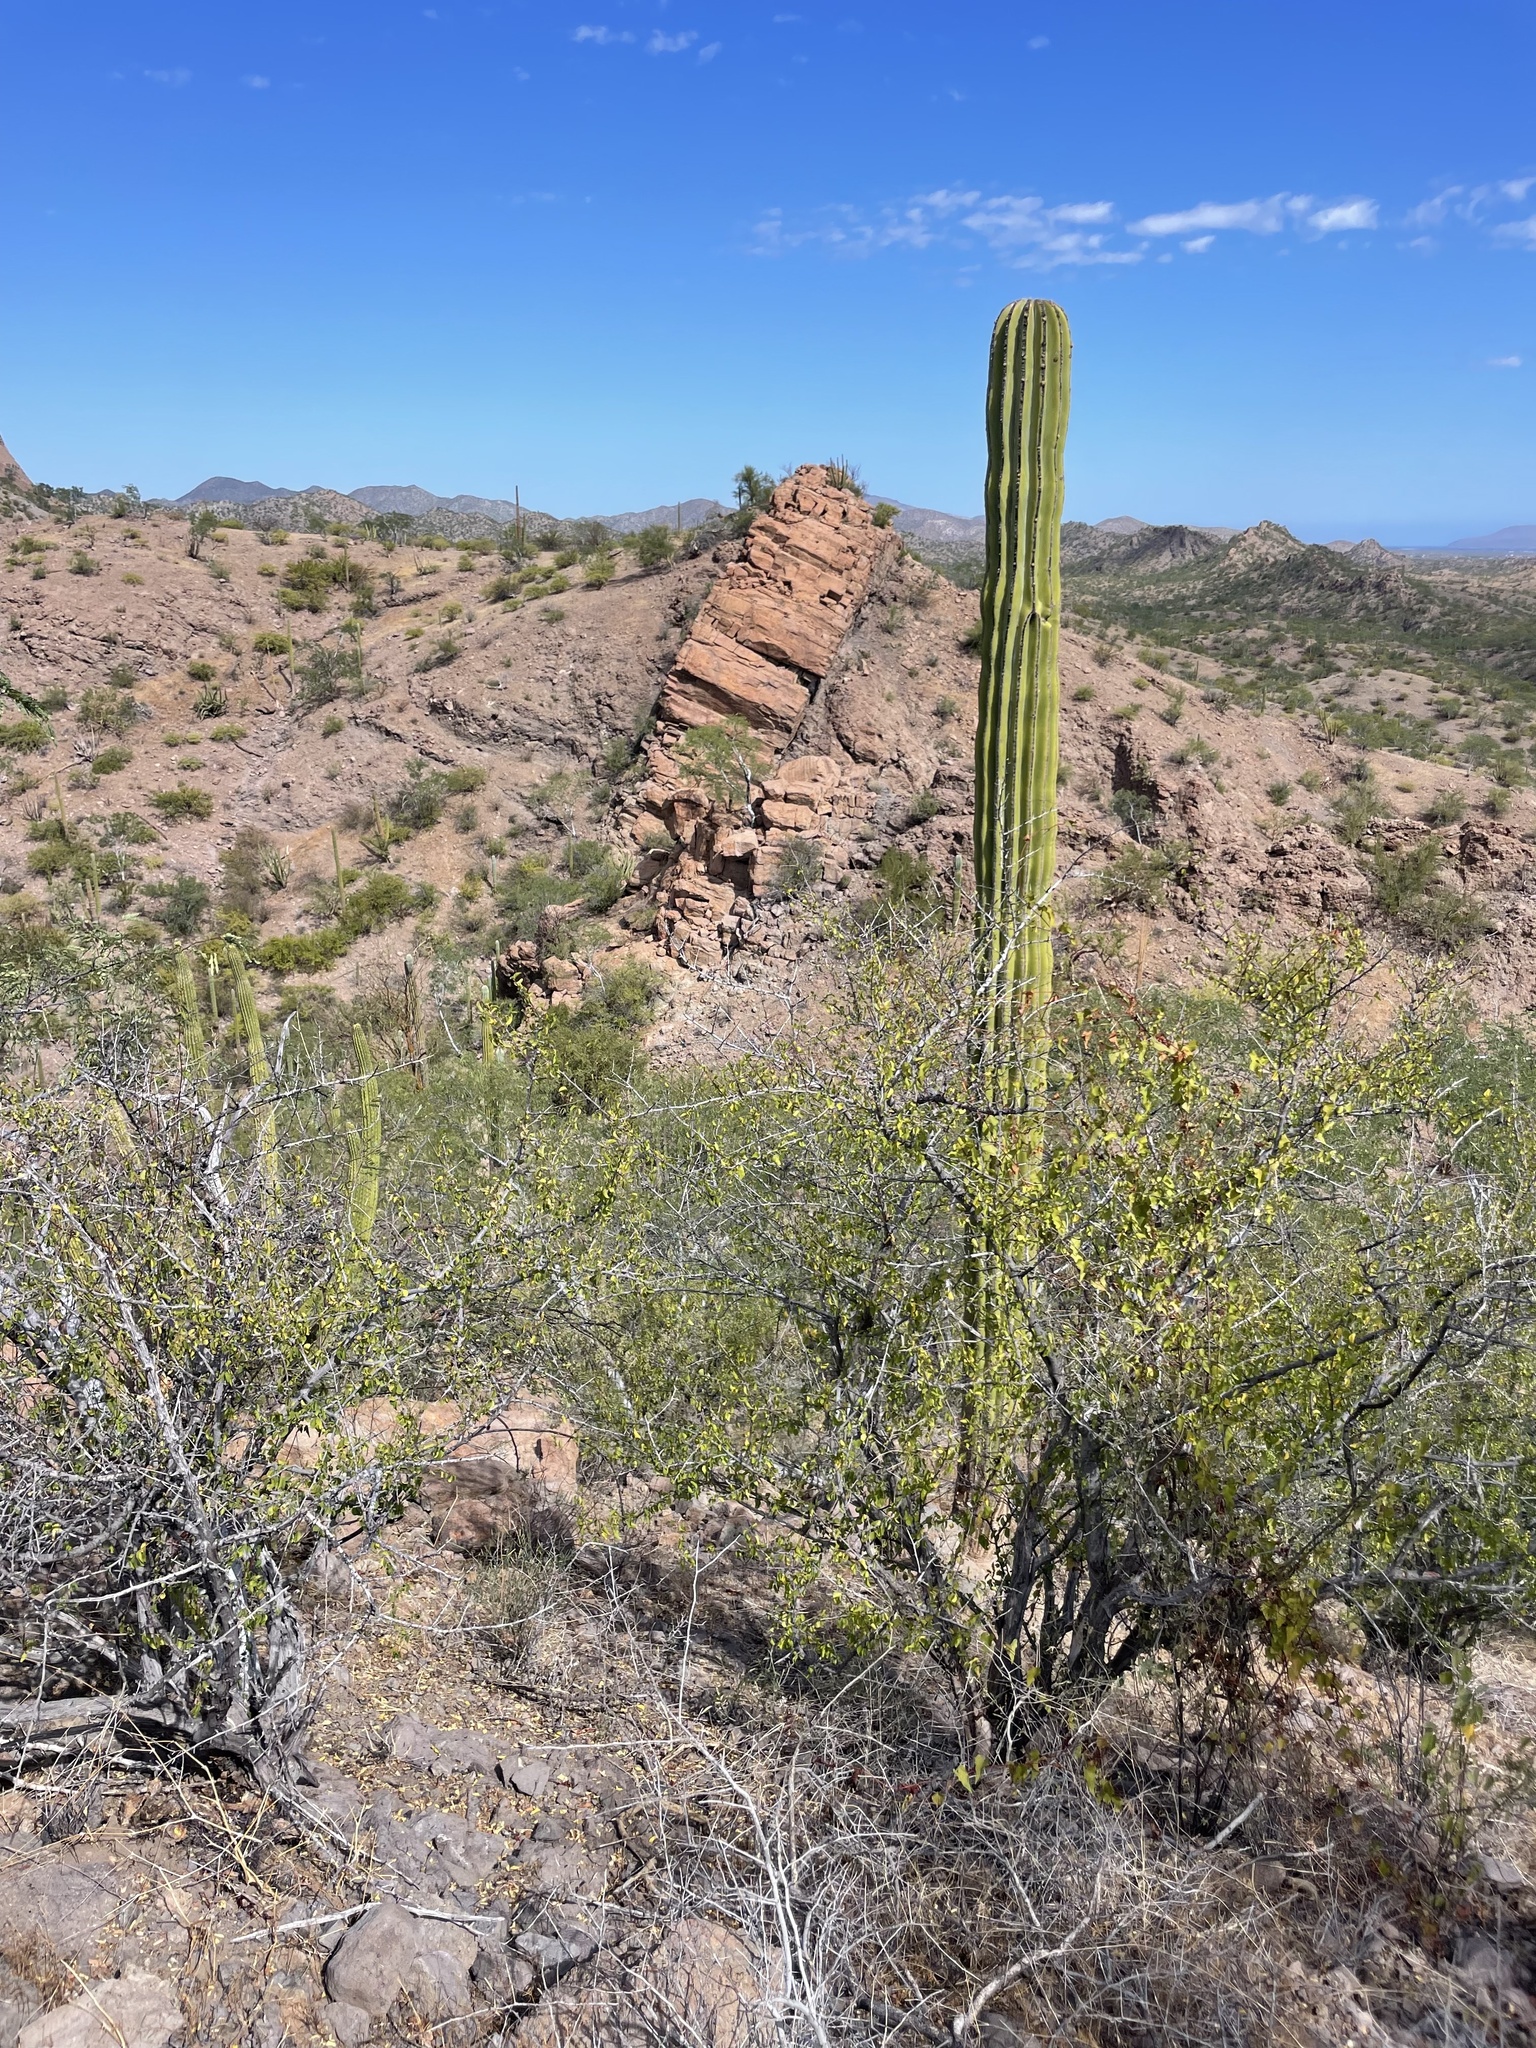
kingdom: Plantae
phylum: Tracheophyta
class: Magnoliopsida
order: Caryophyllales
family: Cactaceae
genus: Pachycereus
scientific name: Pachycereus pringlei
